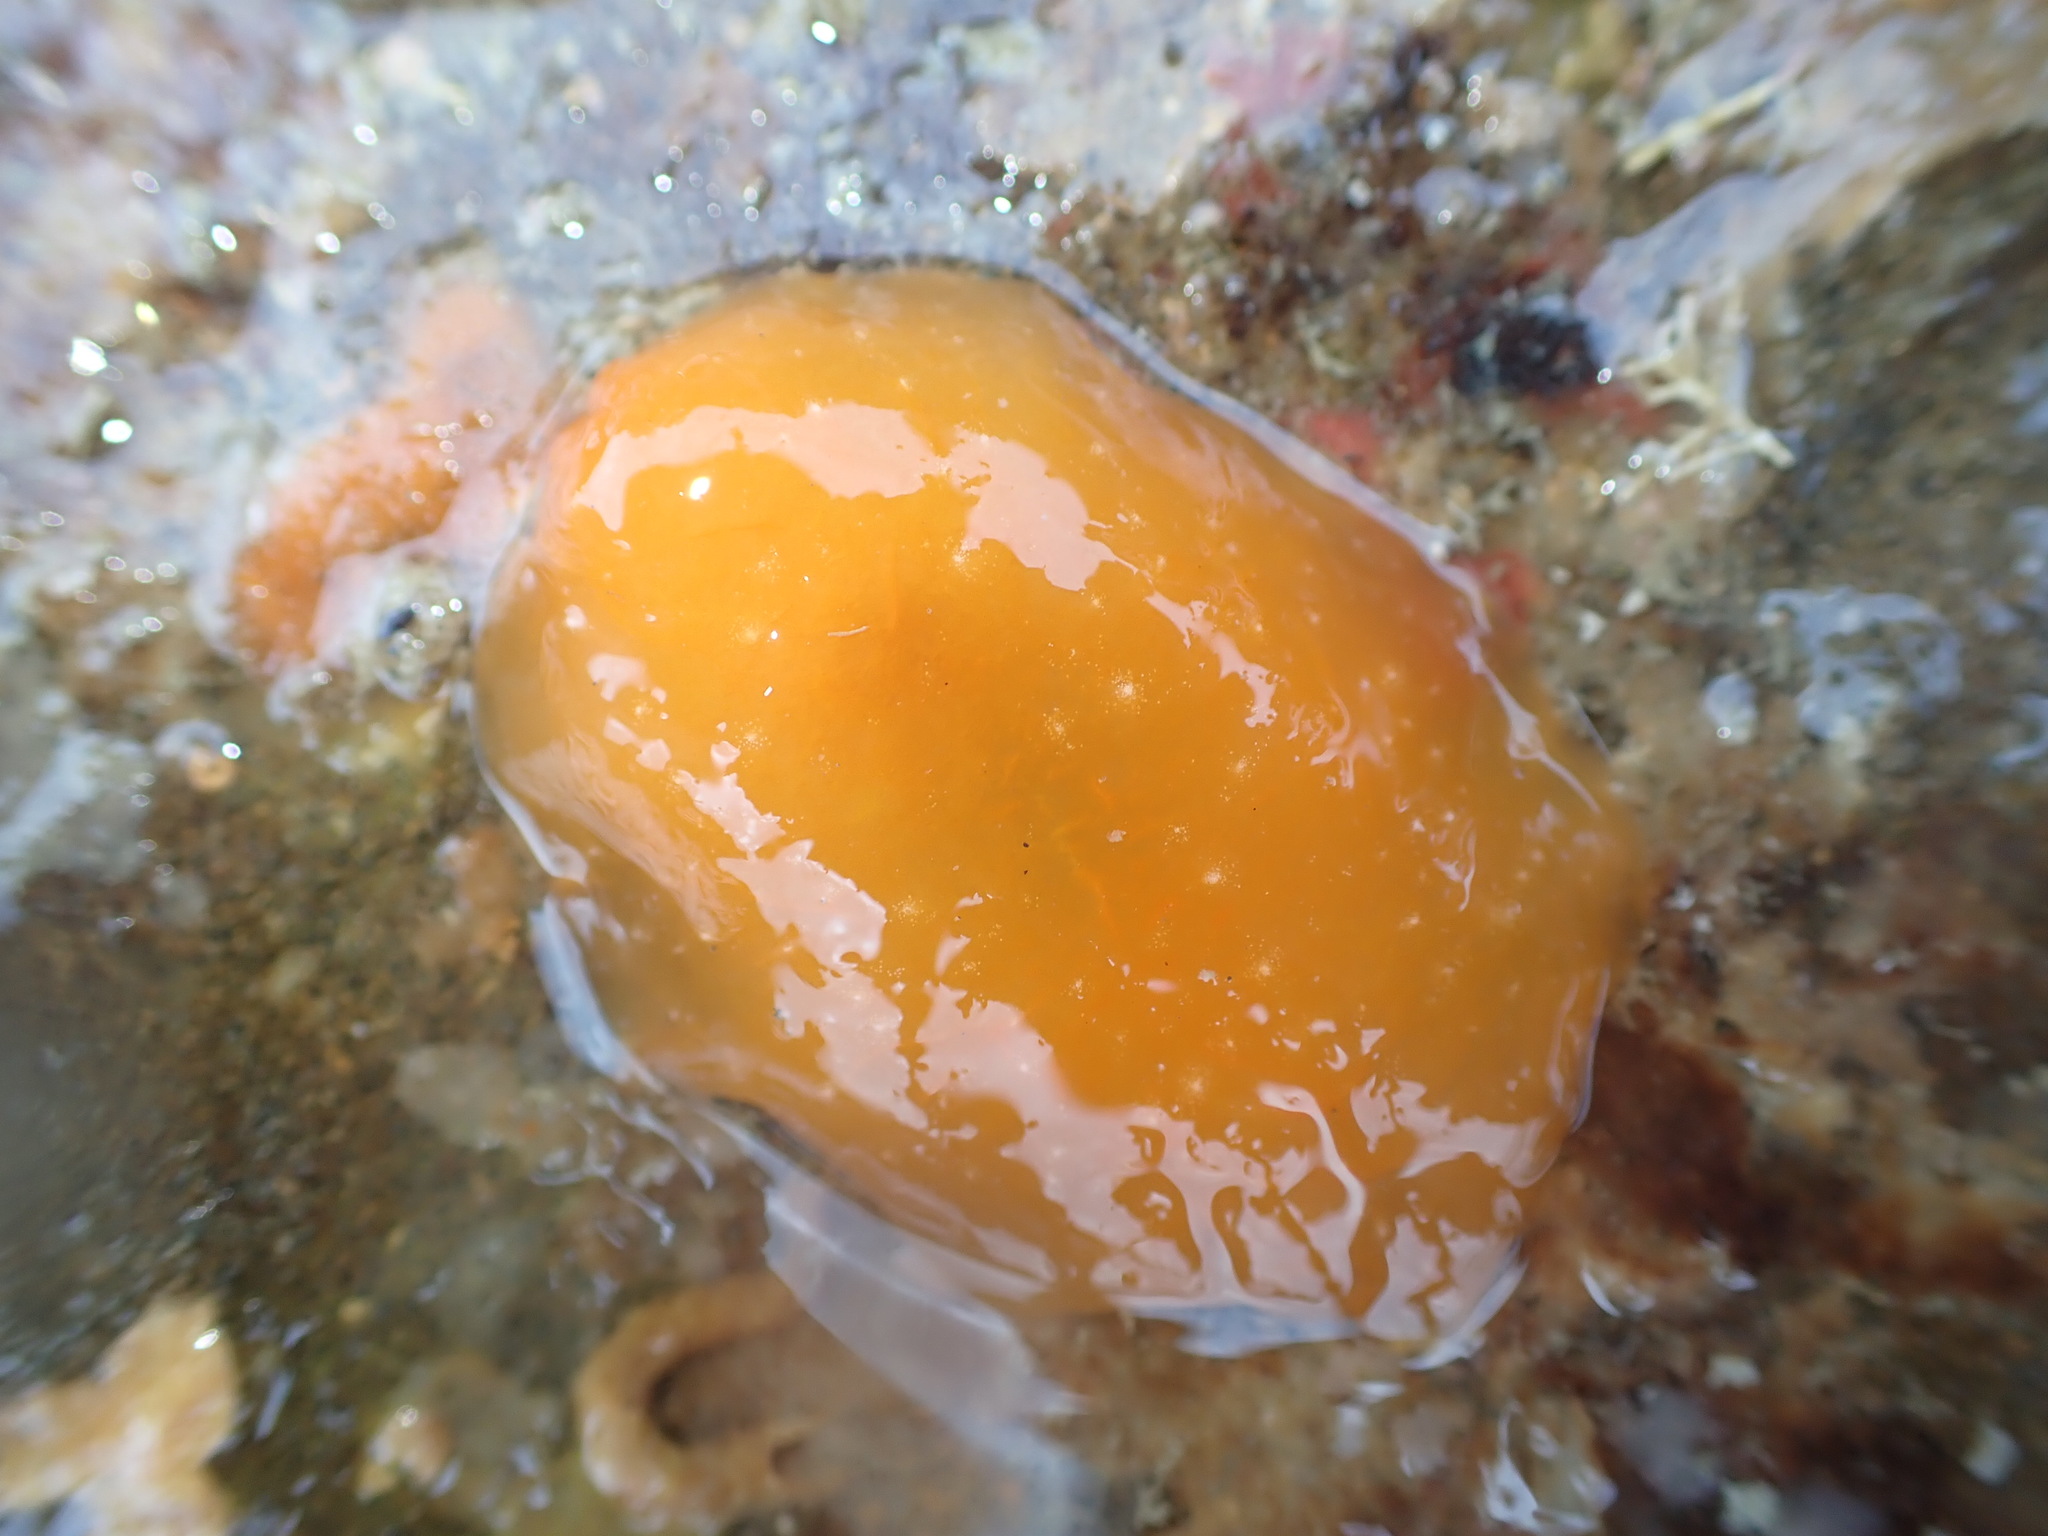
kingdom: Animalia
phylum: Mollusca
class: Gastropoda
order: Pleurobranchida
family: Pleurobranchidae
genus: Berthellina
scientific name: Berthellina citrina
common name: Lemon pleurobranch
